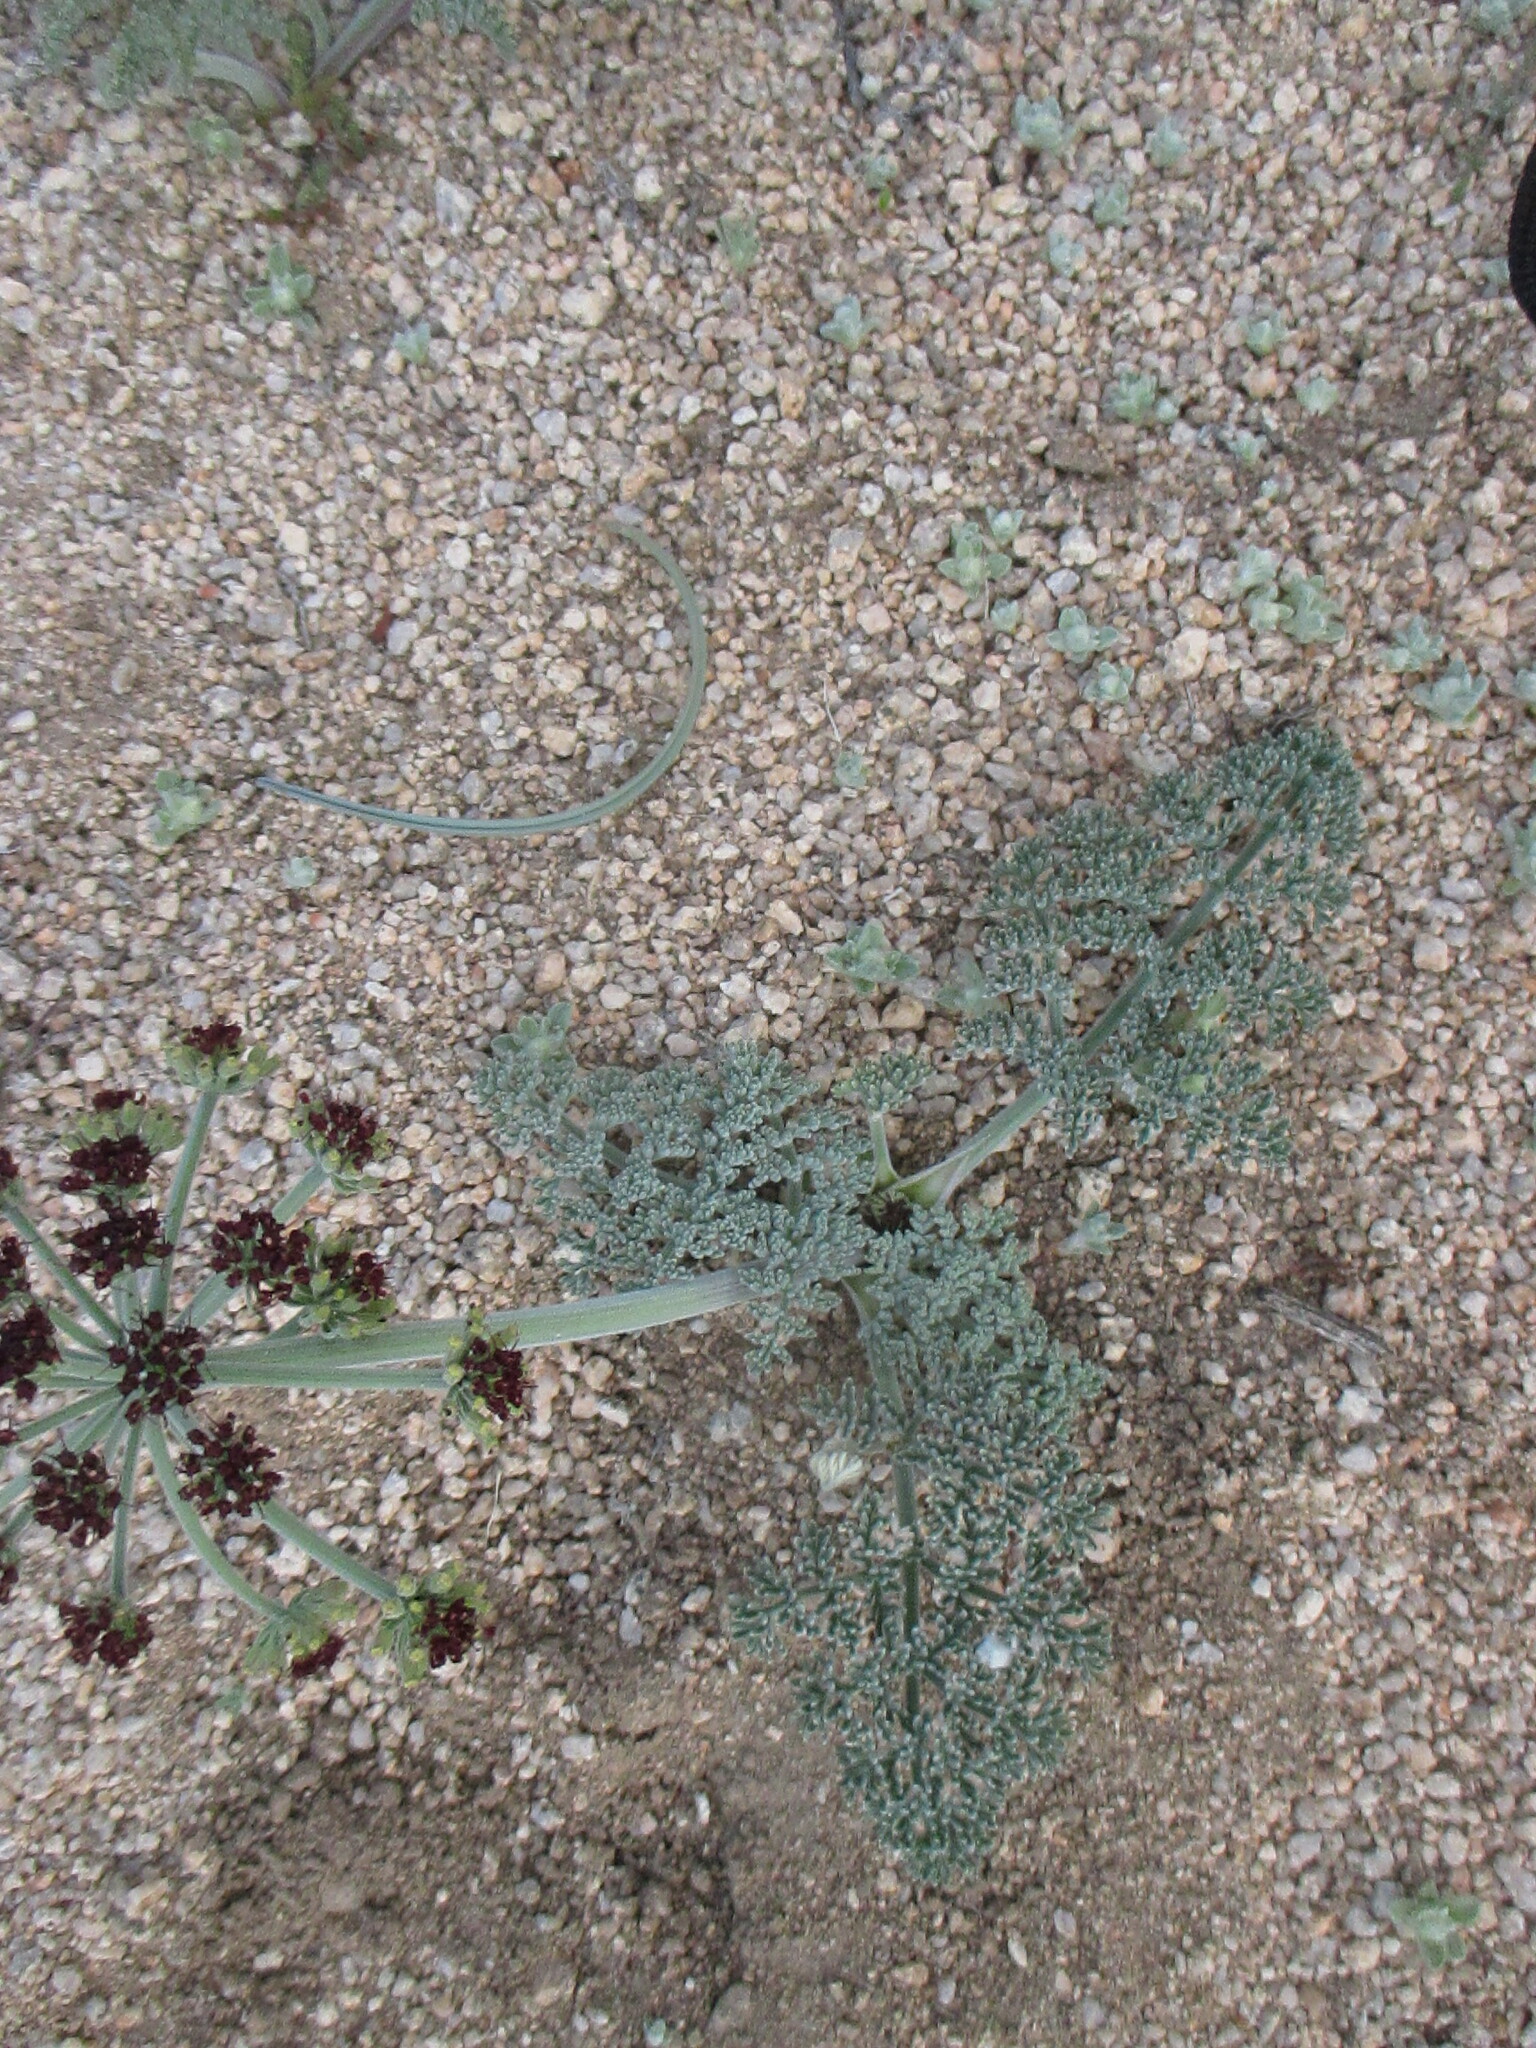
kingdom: Plantae
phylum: Tracheophyta
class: Magnoliopsida
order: Apiales
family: Apiaceae
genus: Lomatium
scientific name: Lomatium mohavense
